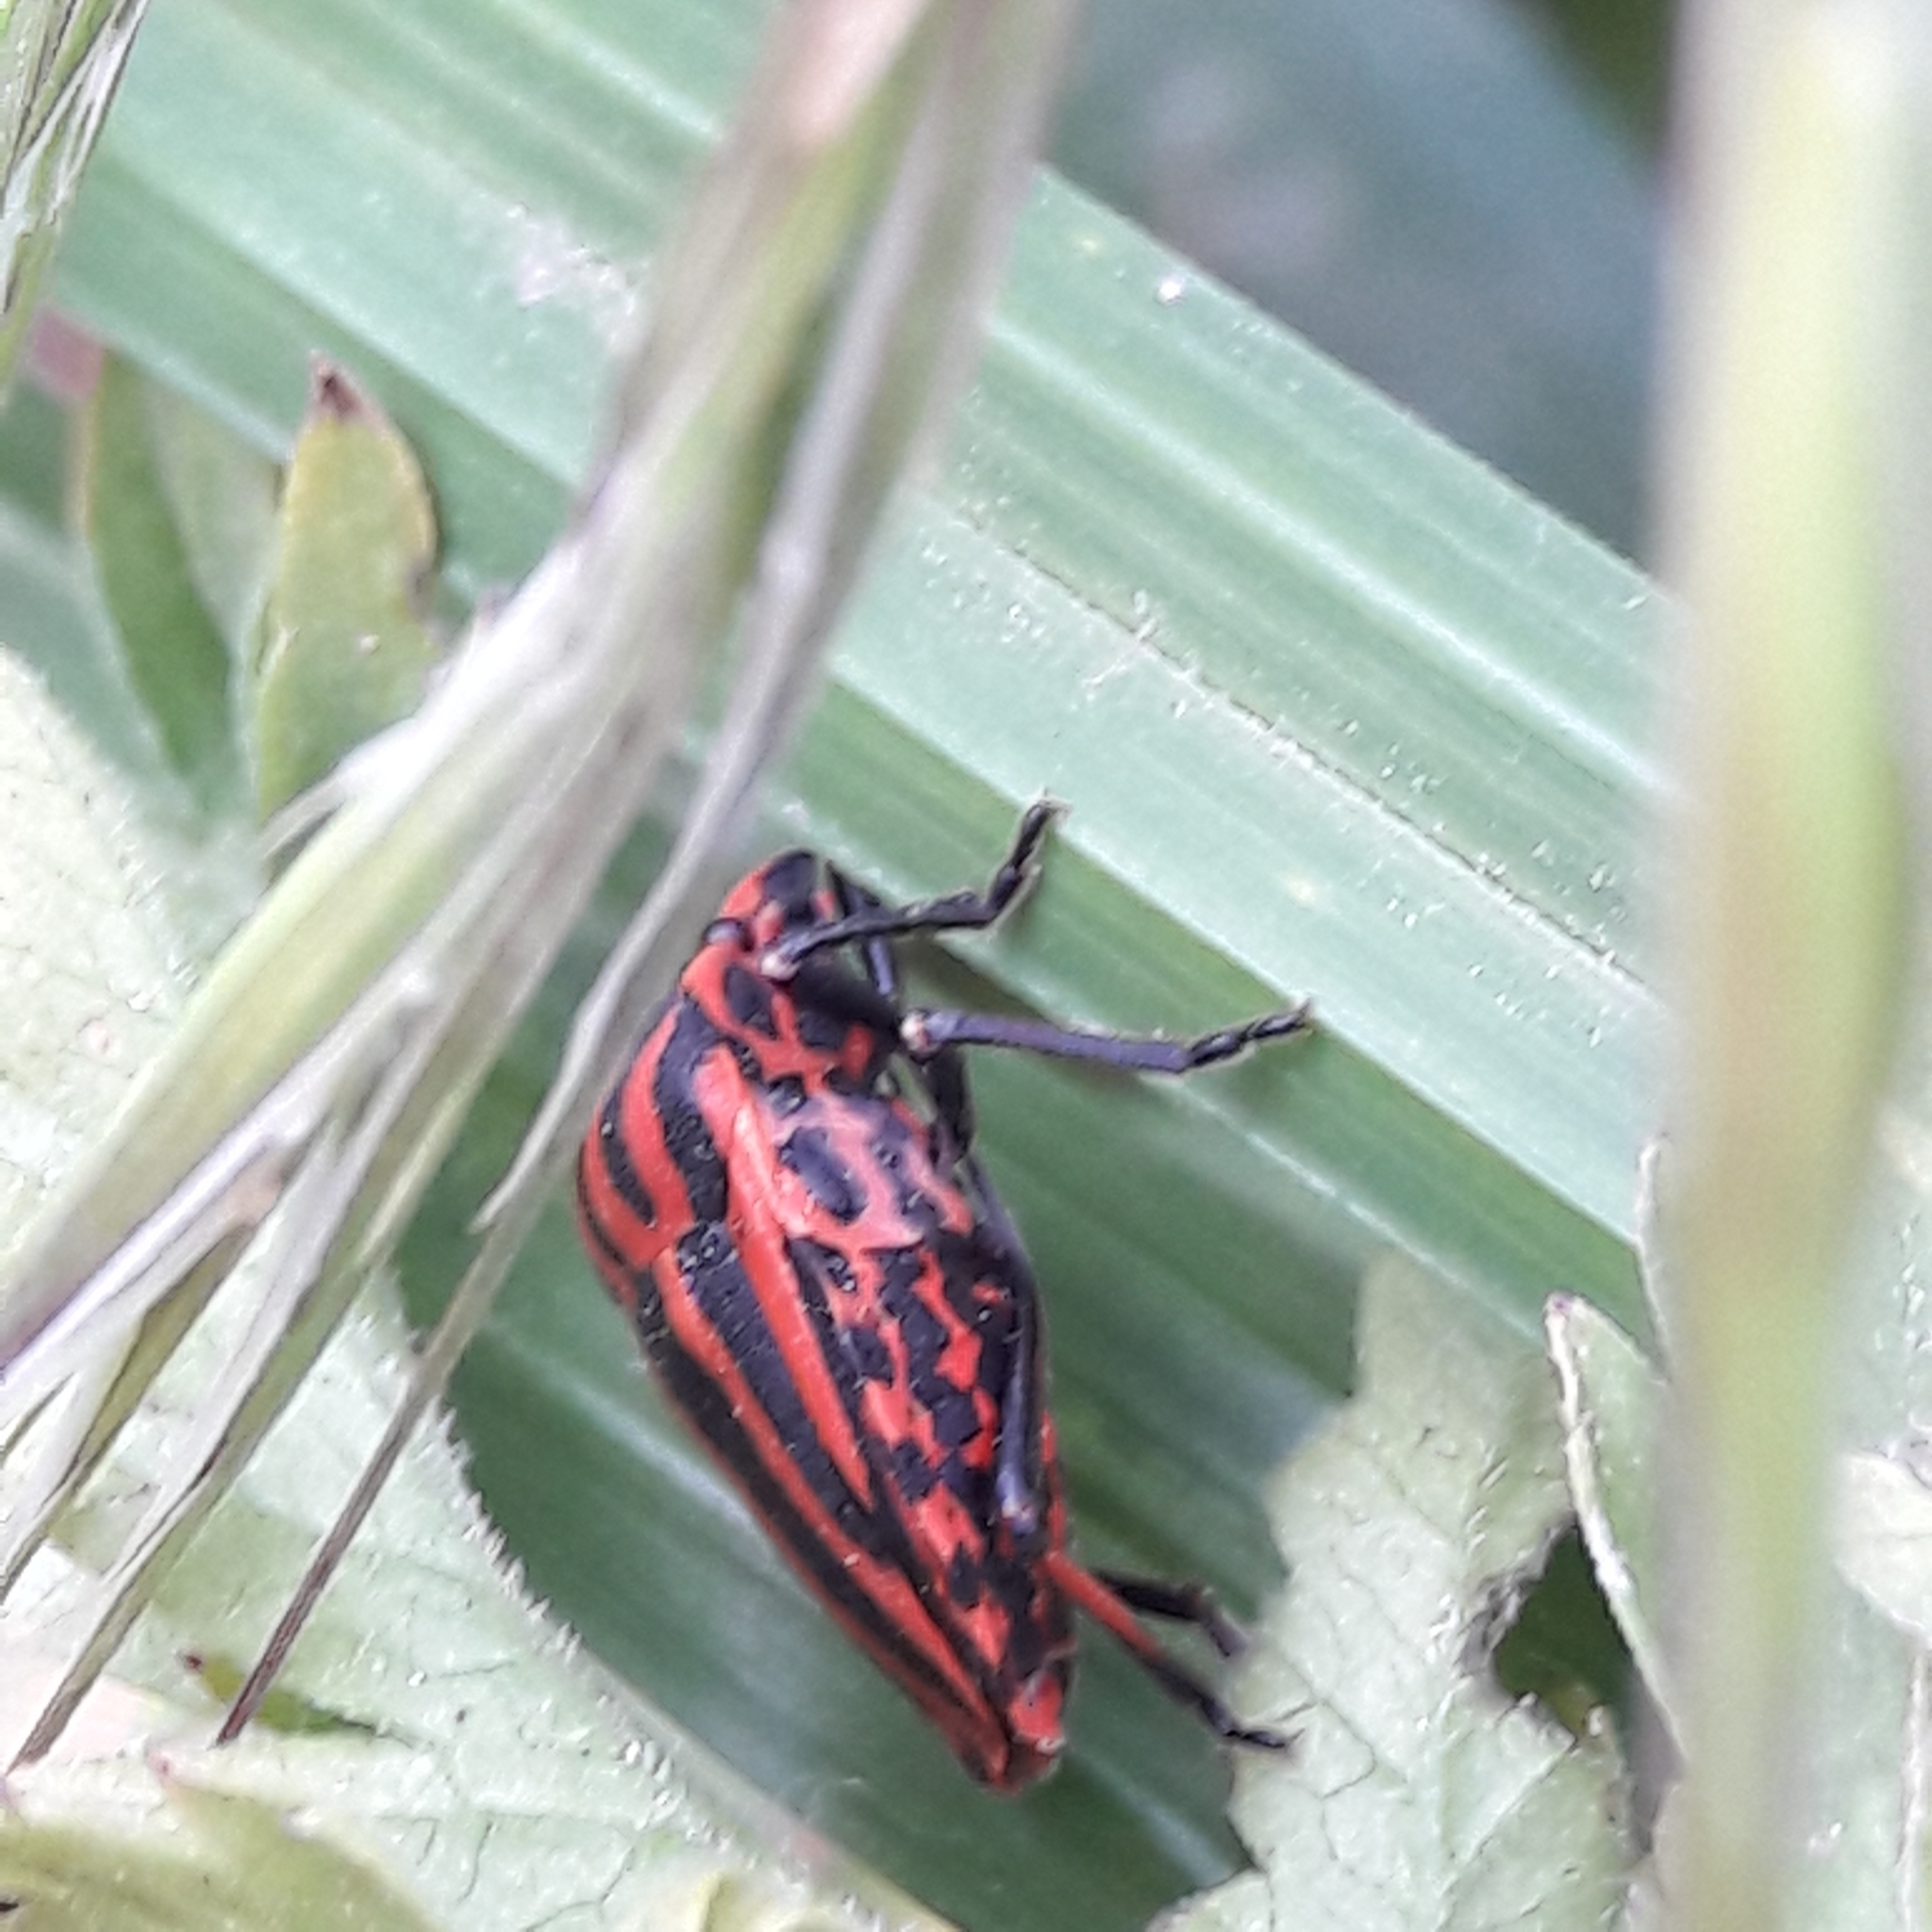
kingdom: Animalia
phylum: Arthropoda
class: Insecta
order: Hemiptera
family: Pentatomidae
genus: Graphosoma
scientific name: Graphosoma italicum
